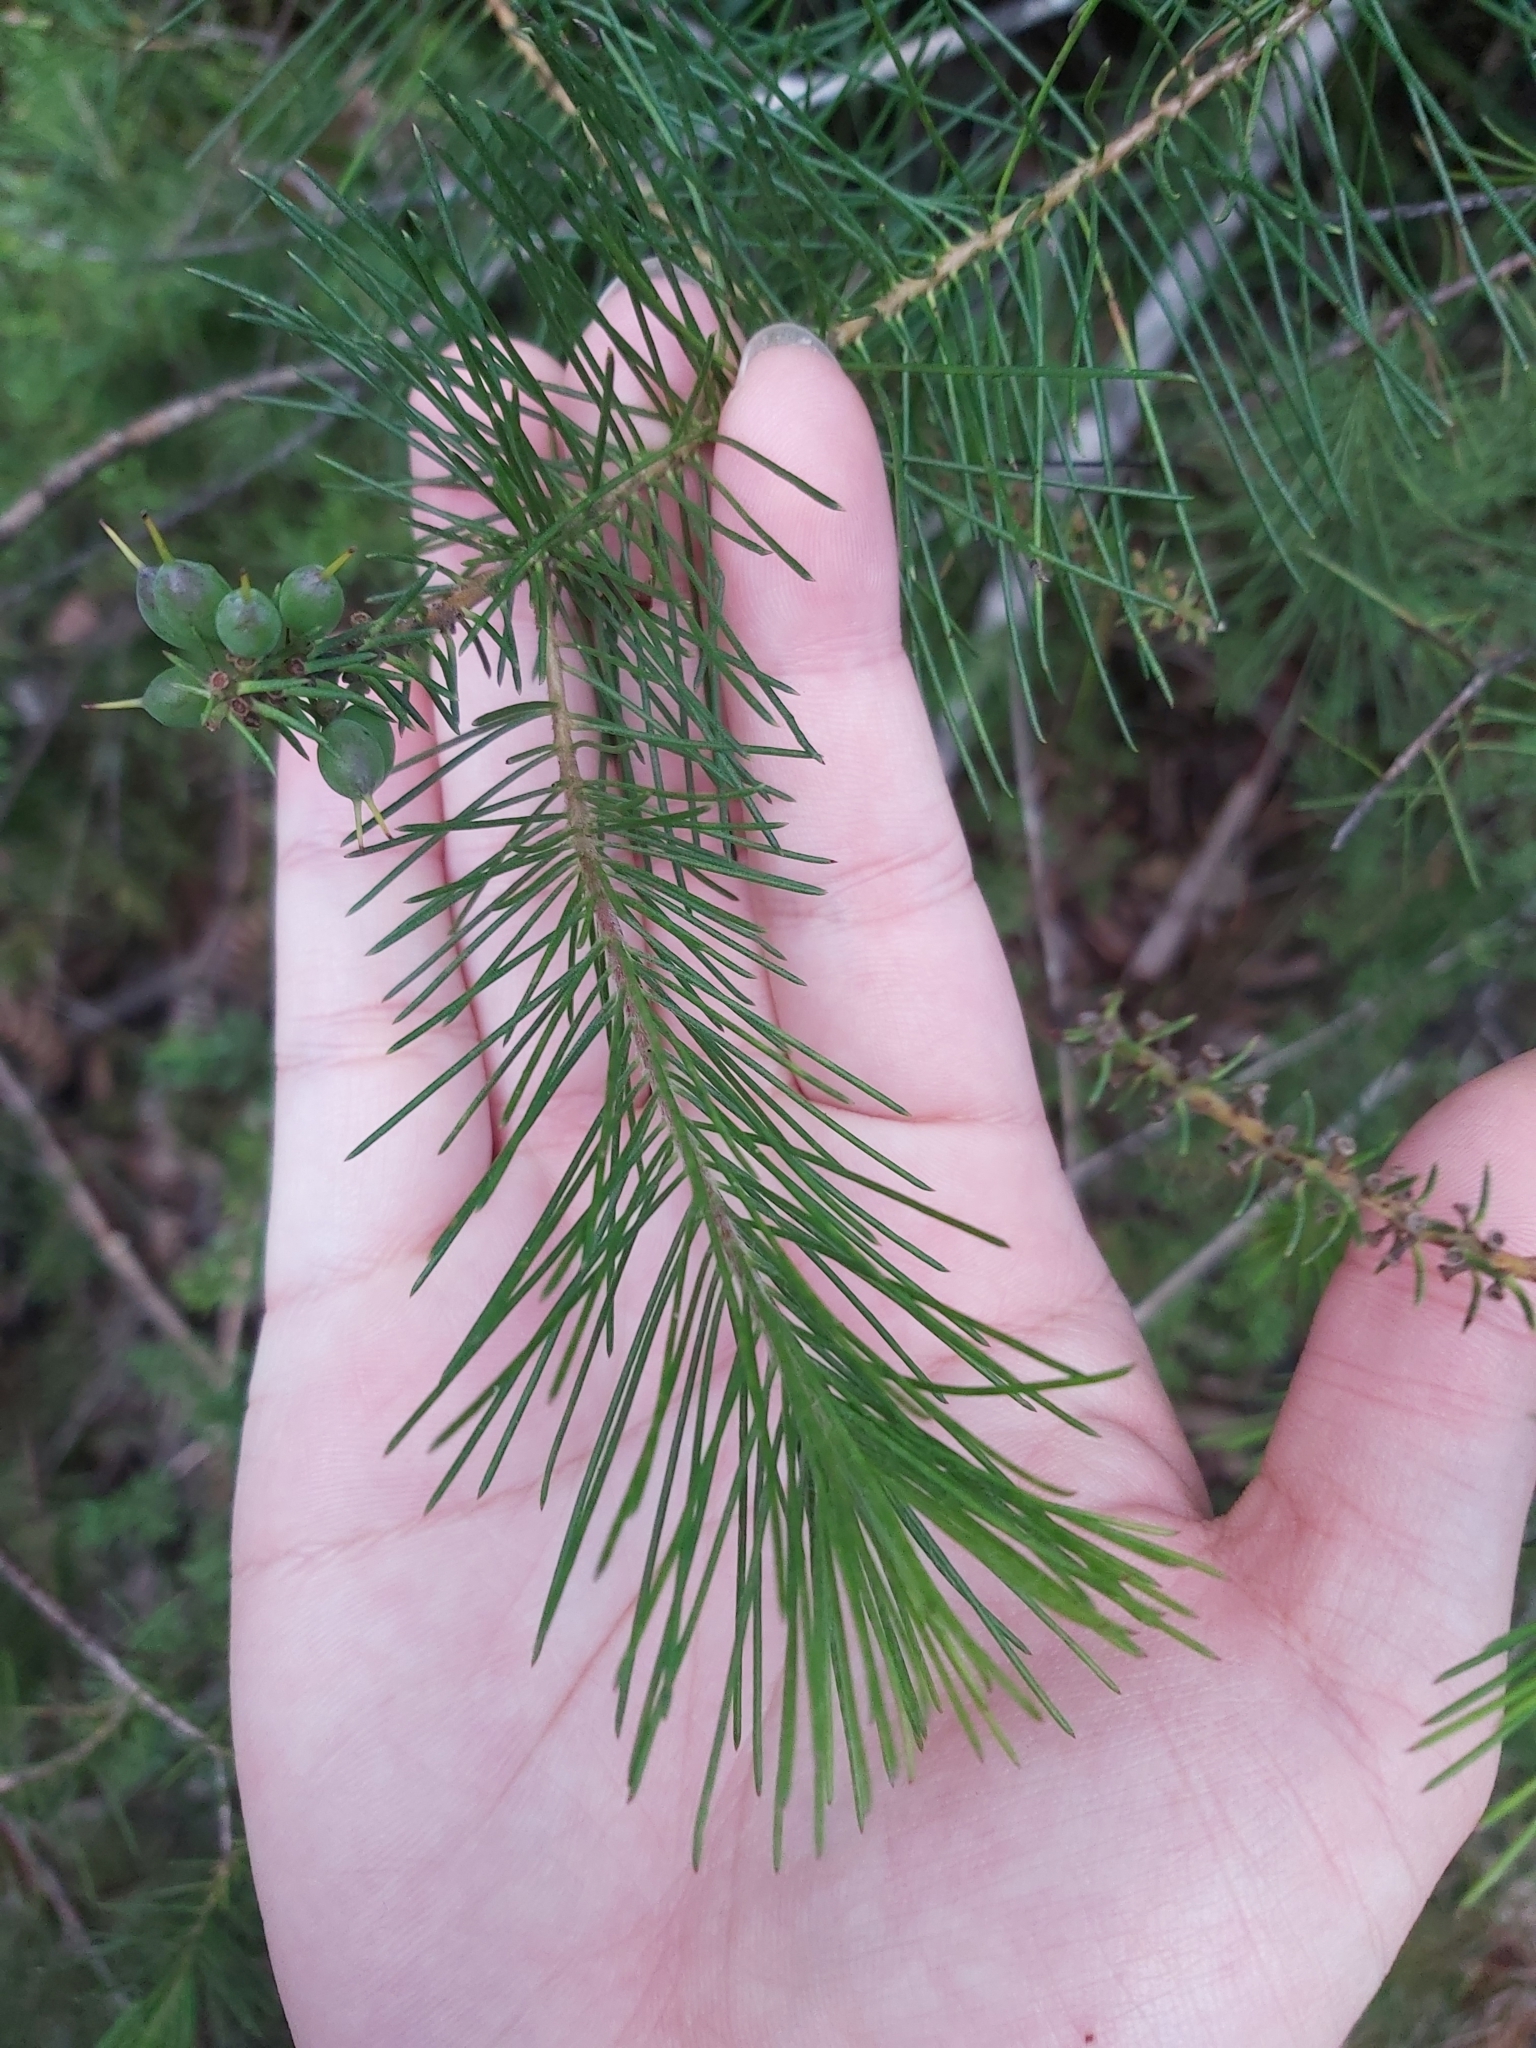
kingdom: Plantae
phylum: Tracheophyta
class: Magnoliopsida
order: Proteales
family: Proteaceae
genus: Persoonia
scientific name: Persoonia pinifolia
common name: Pine-leaf geebung
